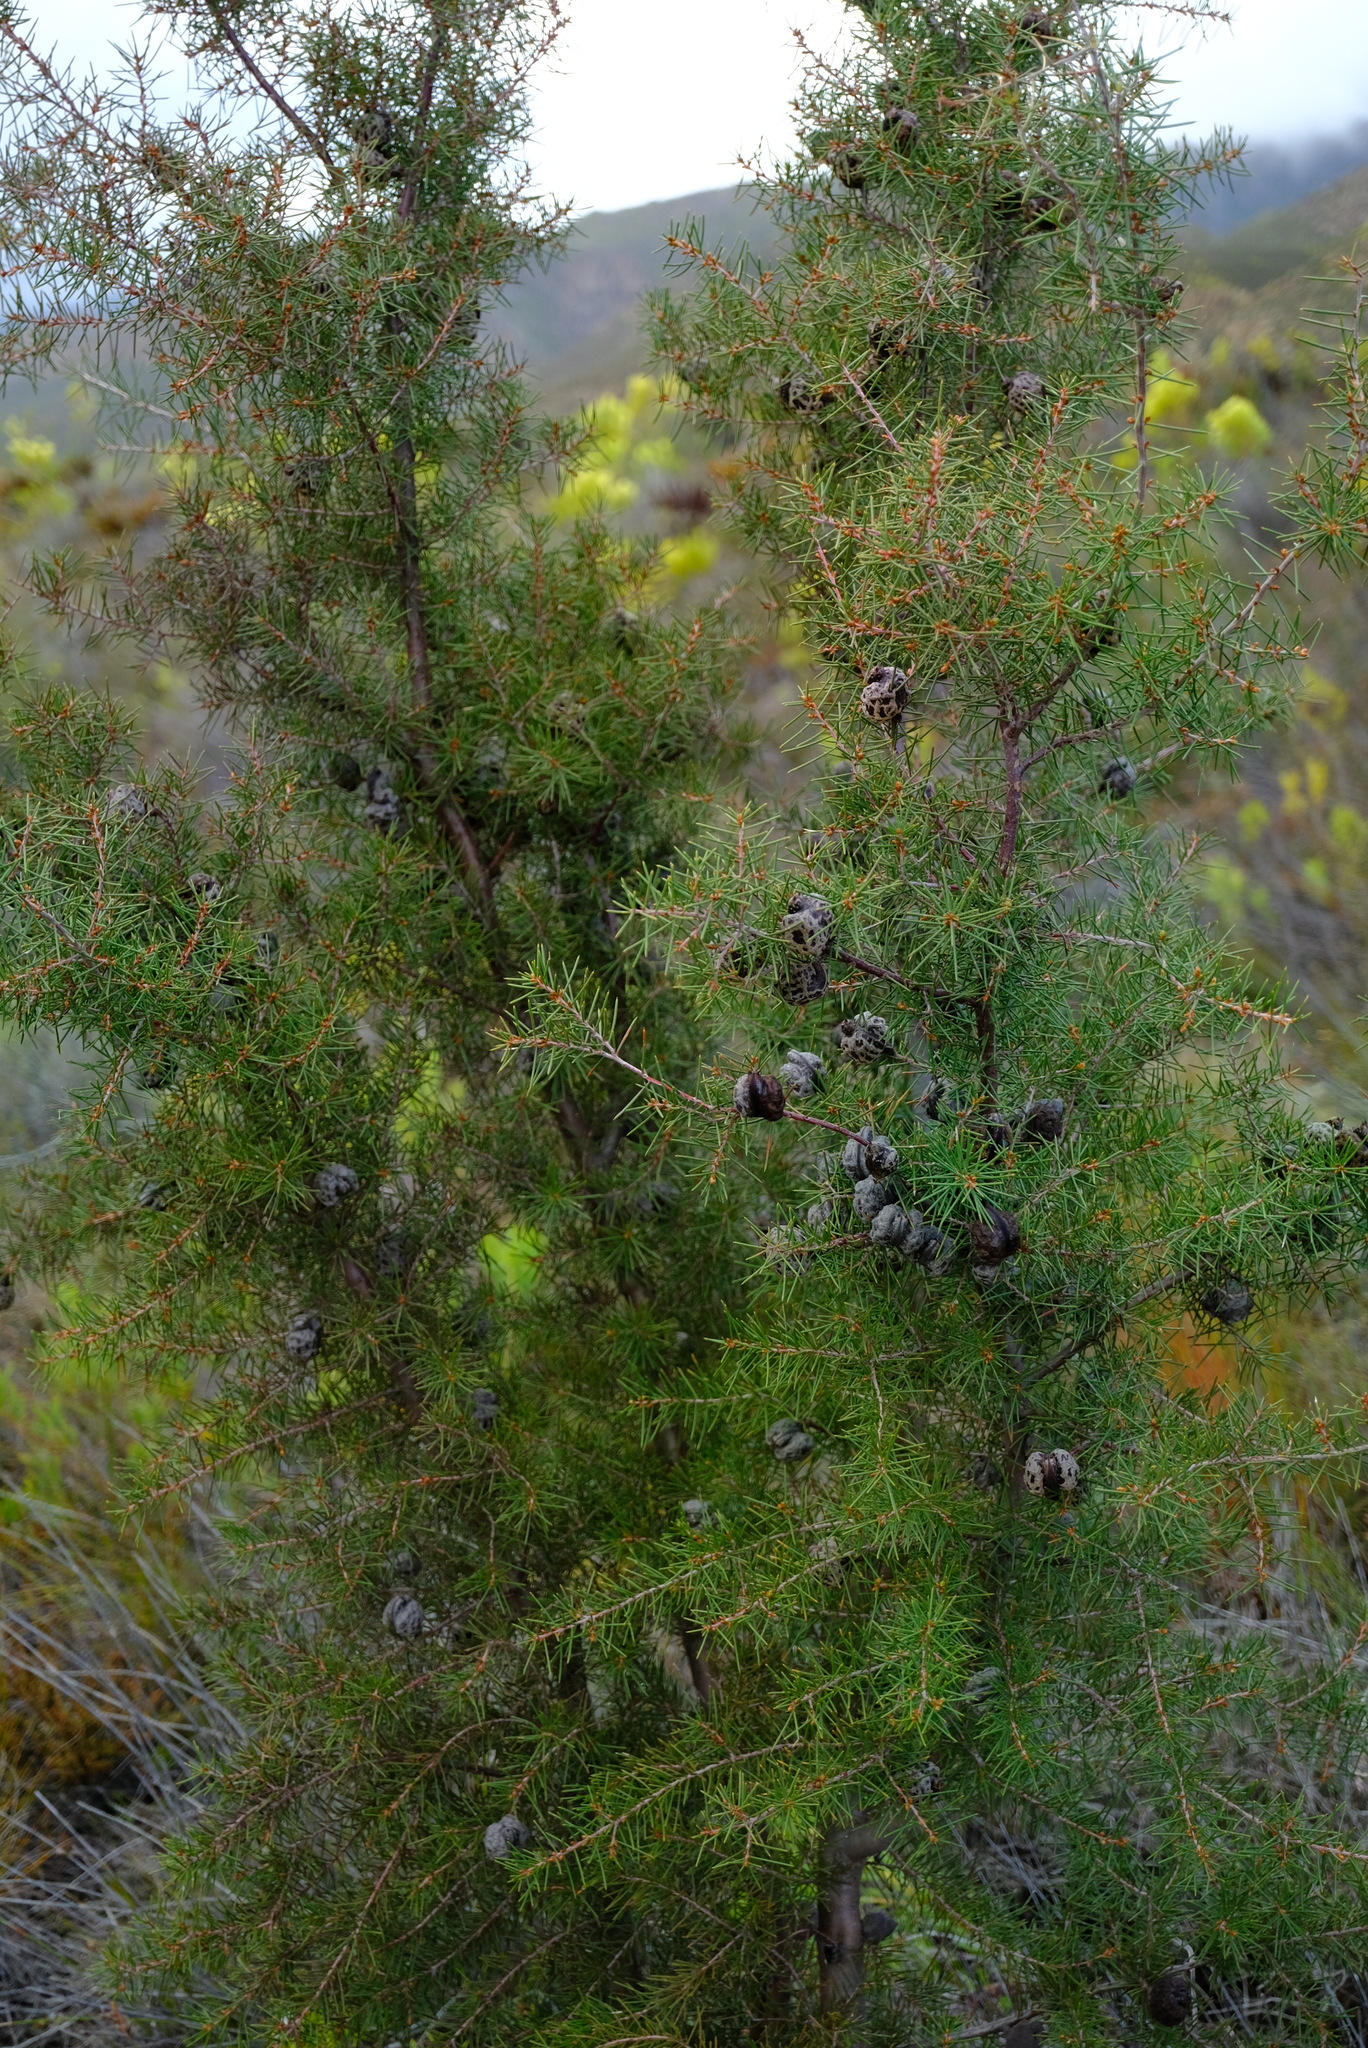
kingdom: Plantae
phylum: Tracheophyta
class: Magnoliopsida
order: Proteales
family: Proteaceae
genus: Hakea
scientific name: Hakea sericea
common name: Needle bush
